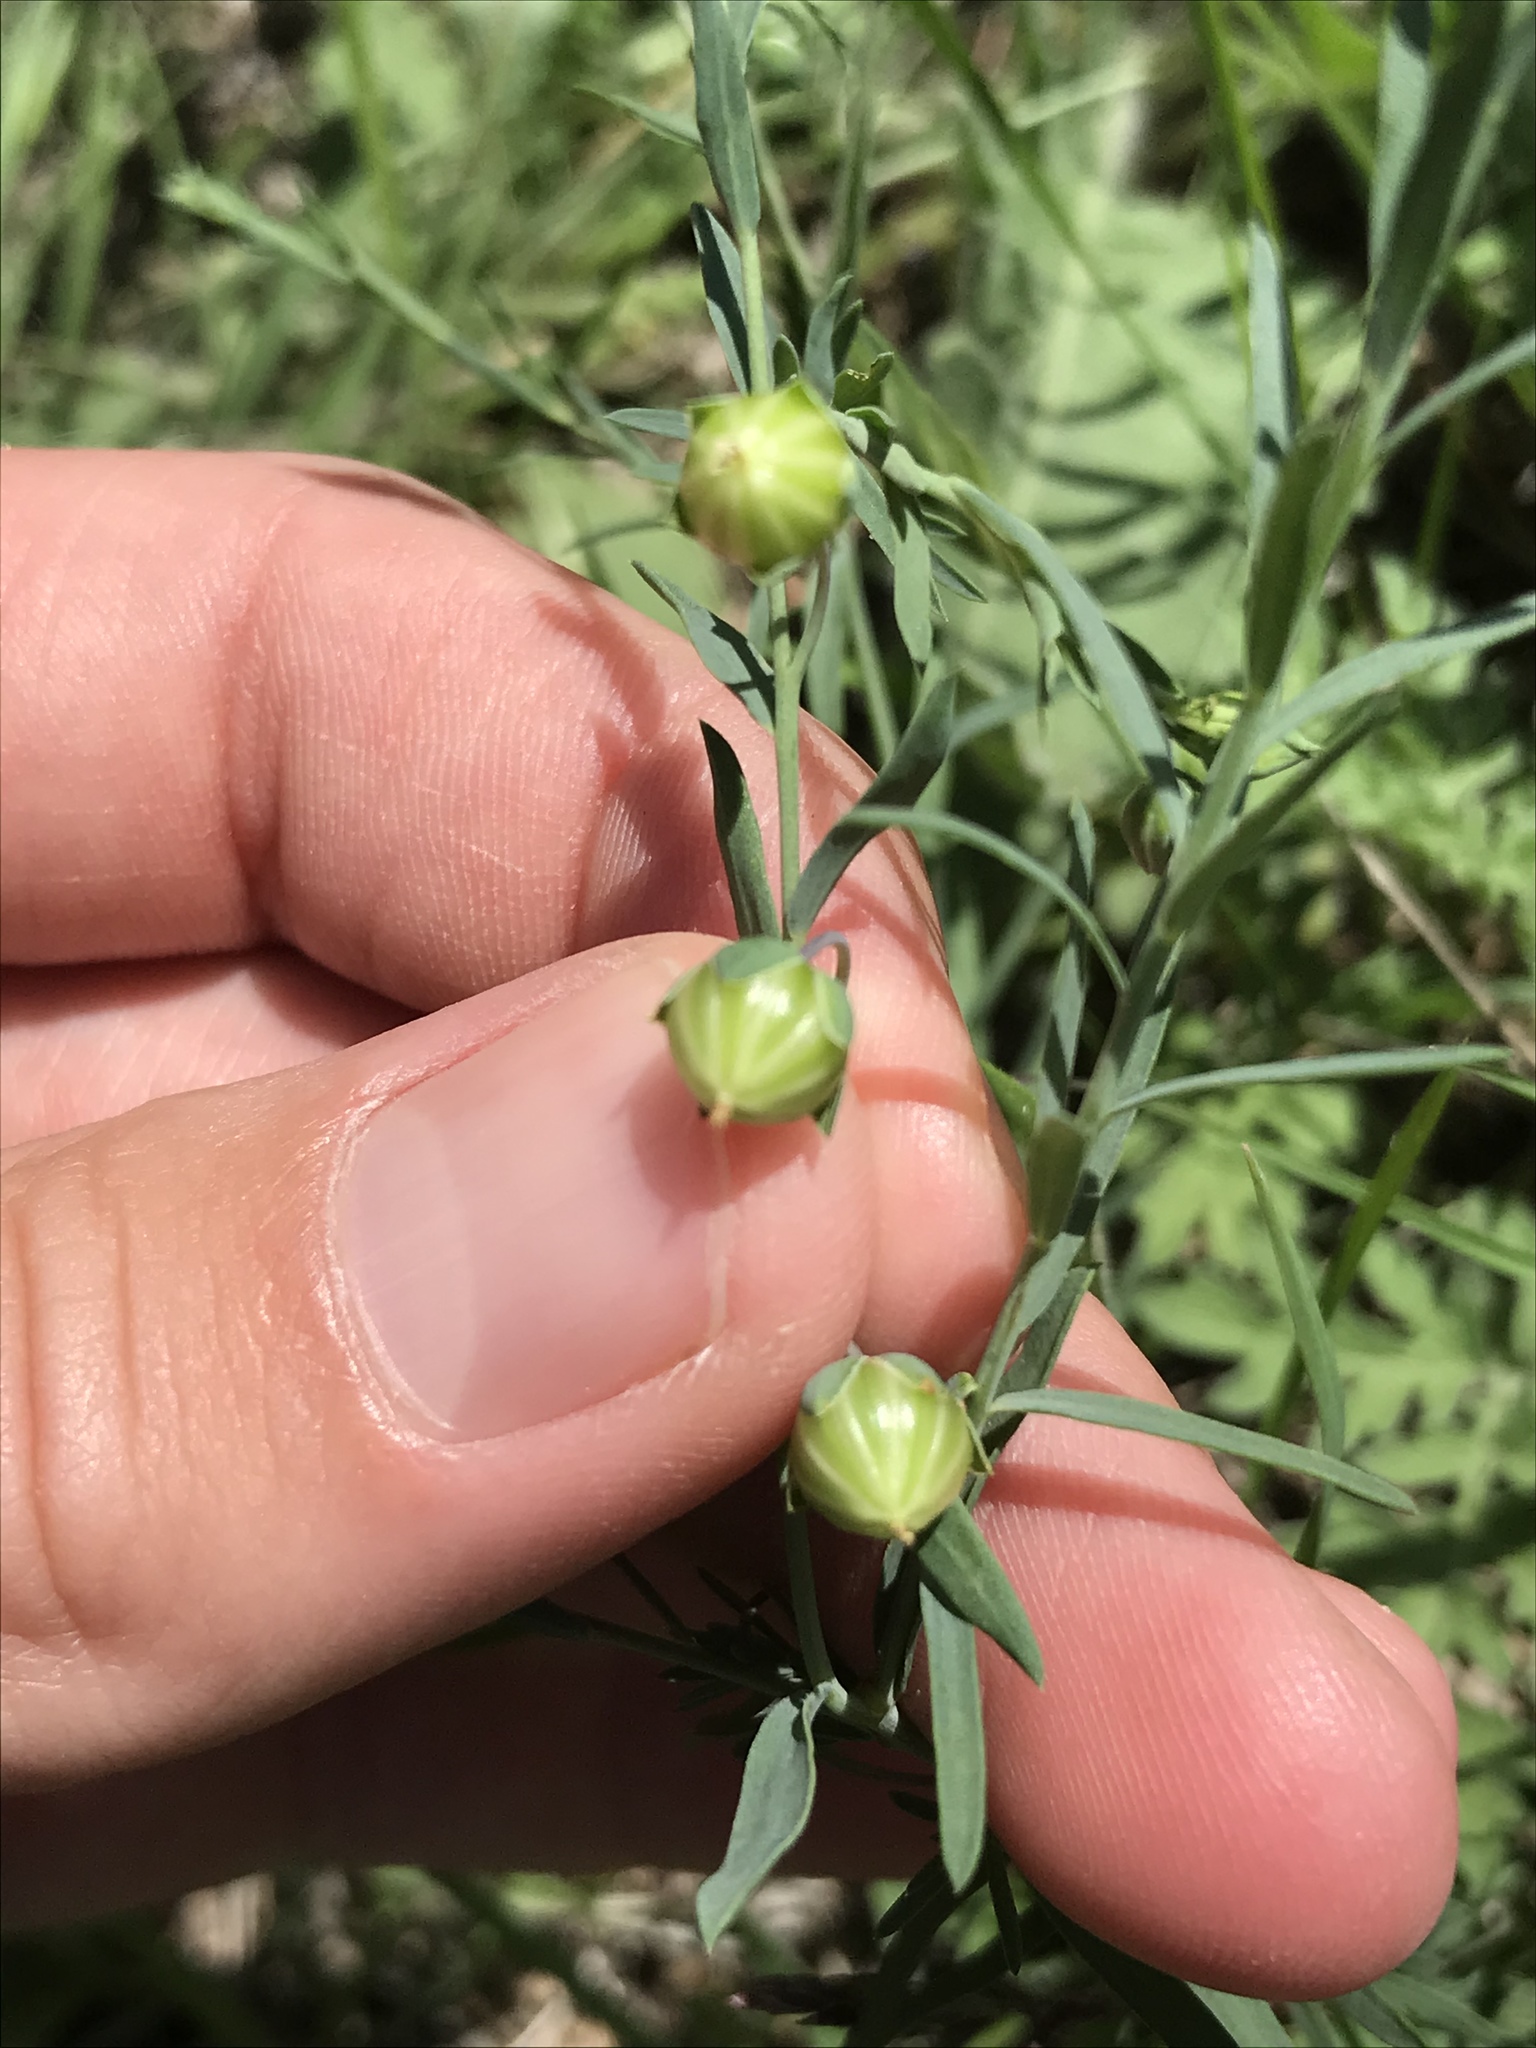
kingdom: Plantae
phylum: Tracheophyta
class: Magnoliopsida
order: Malpighiales
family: Linaceae
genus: Linum
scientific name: Linum pratense
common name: Norton's flax
